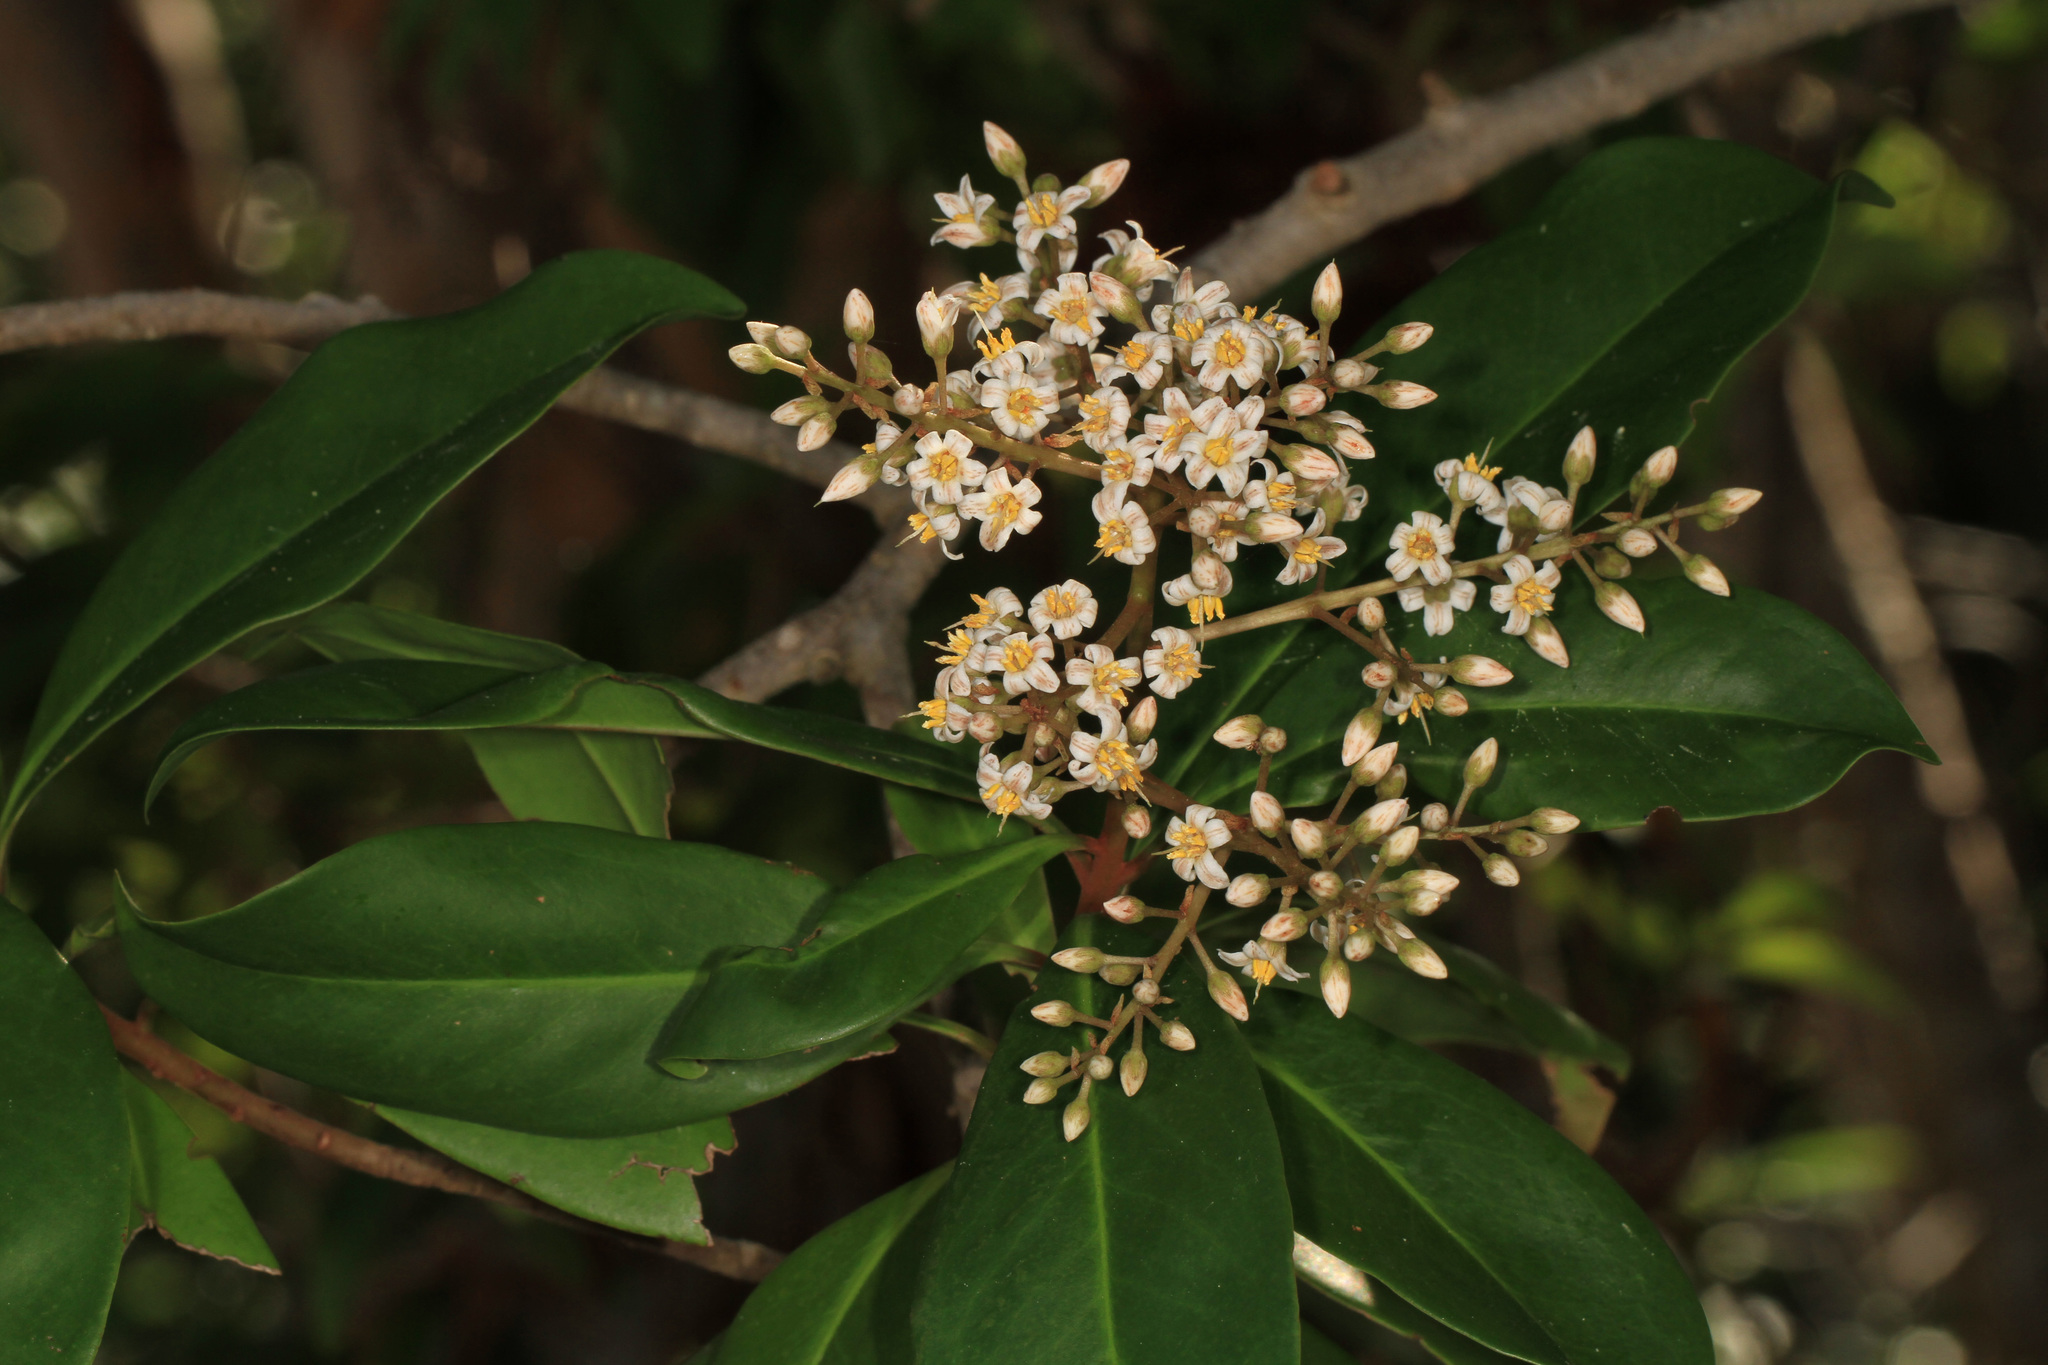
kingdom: Plantae
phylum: Tracheophyta
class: Magnoliopsida
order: Ericales
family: Primulaceae
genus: Ardisia
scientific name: Ardisia escallonioides
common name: Island marlberry
